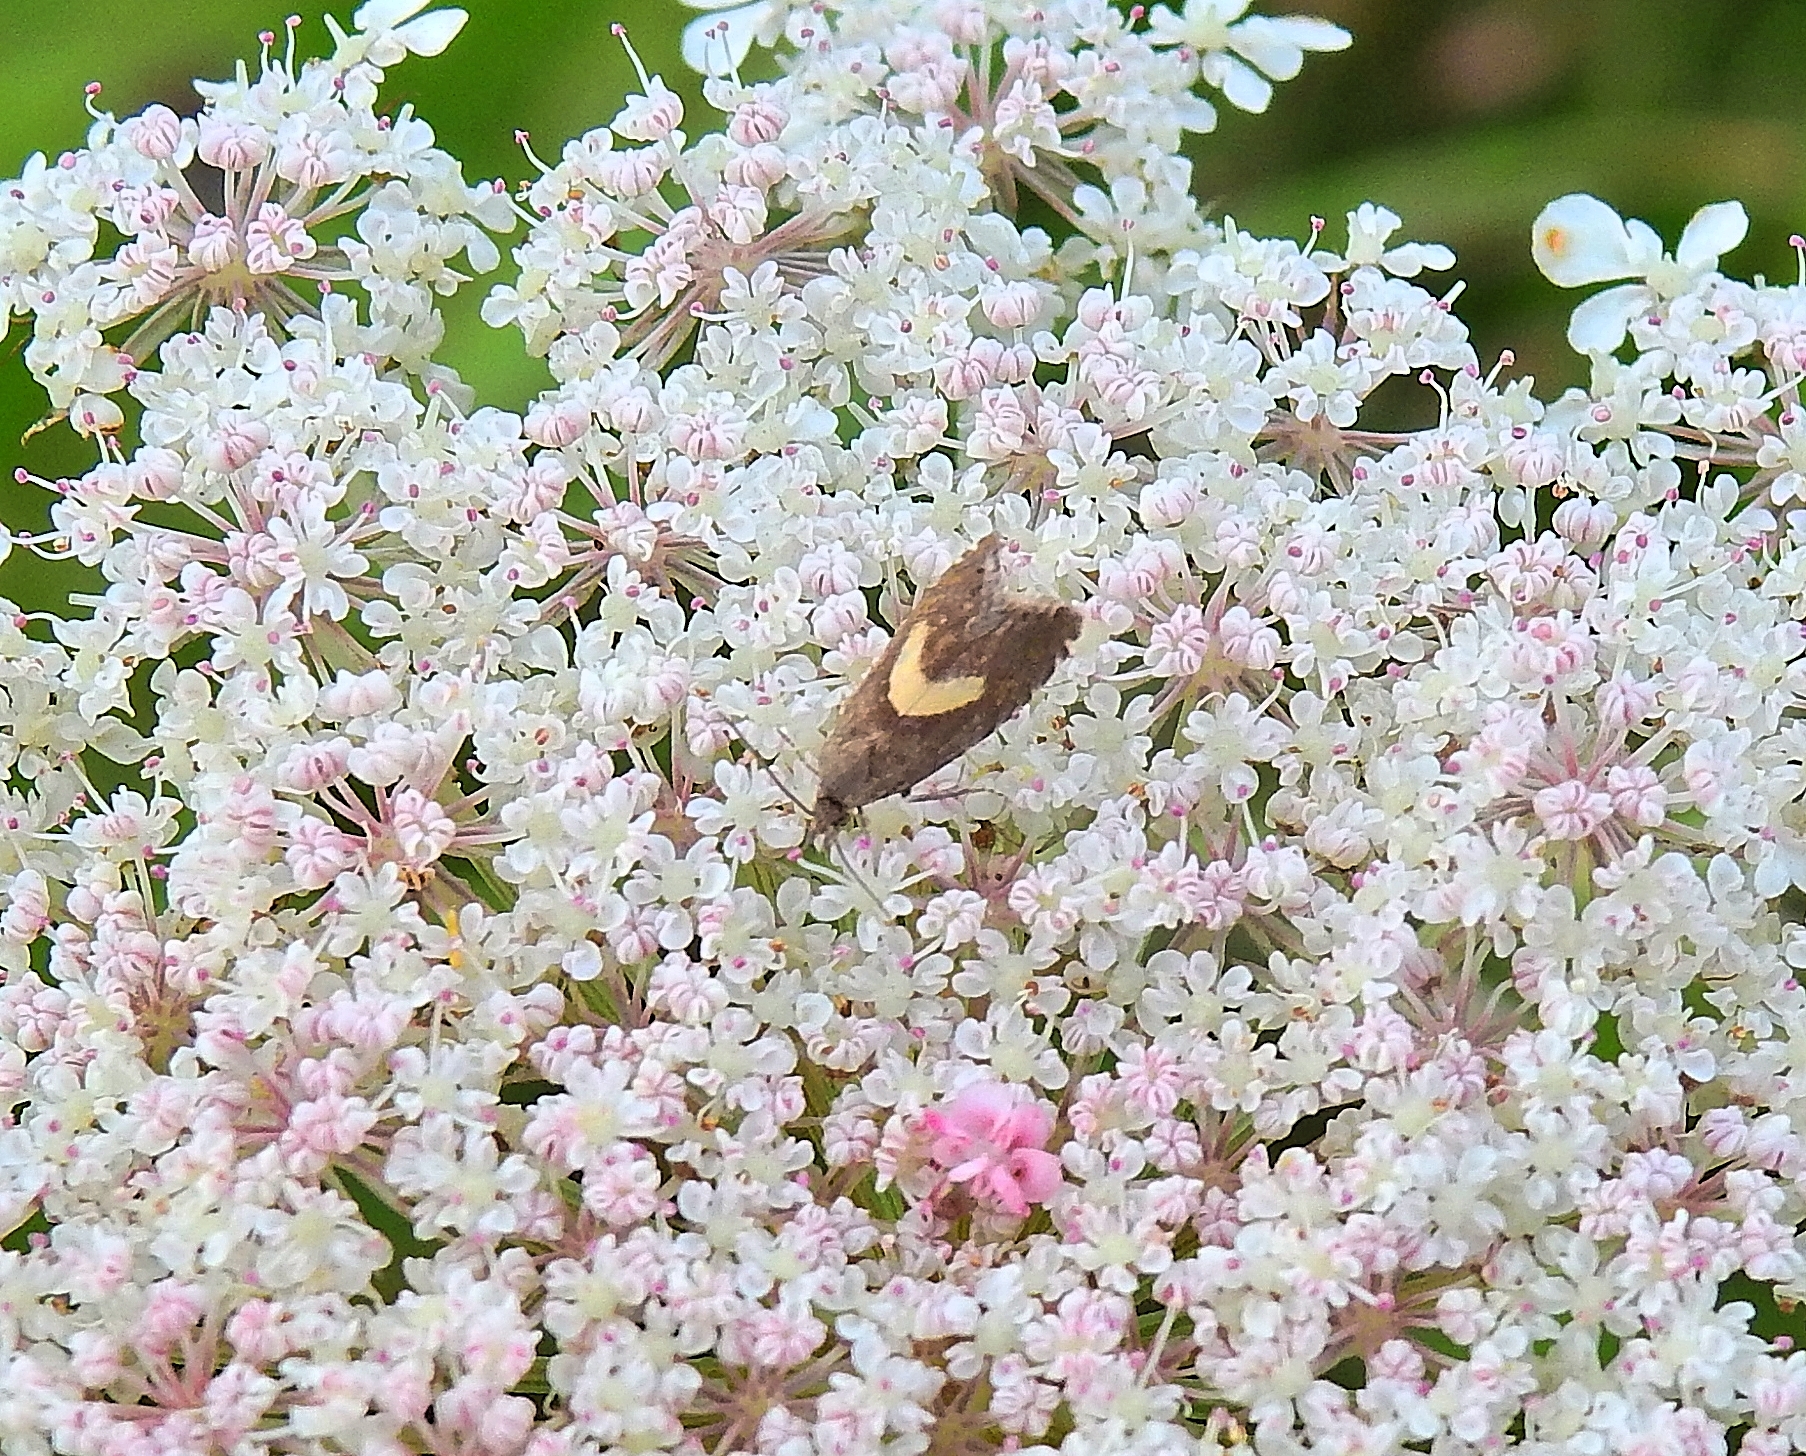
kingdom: Animalia
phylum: Arthropoda
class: Insecta
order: Lepidoptera
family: Tortricidae
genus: Dichrorampha
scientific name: Dichrorampha petiverella
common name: Common drill
